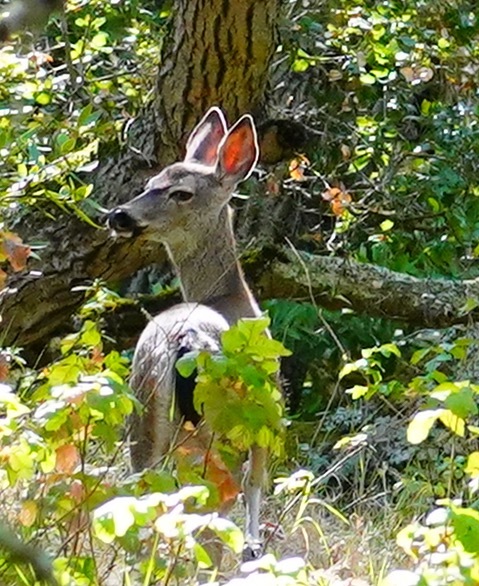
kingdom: Animalia
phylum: Chordata
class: Mammalia
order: Artiodactyla
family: Cervidae
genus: Odocoileus
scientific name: Odocoileus hemionus
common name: Mule deer
